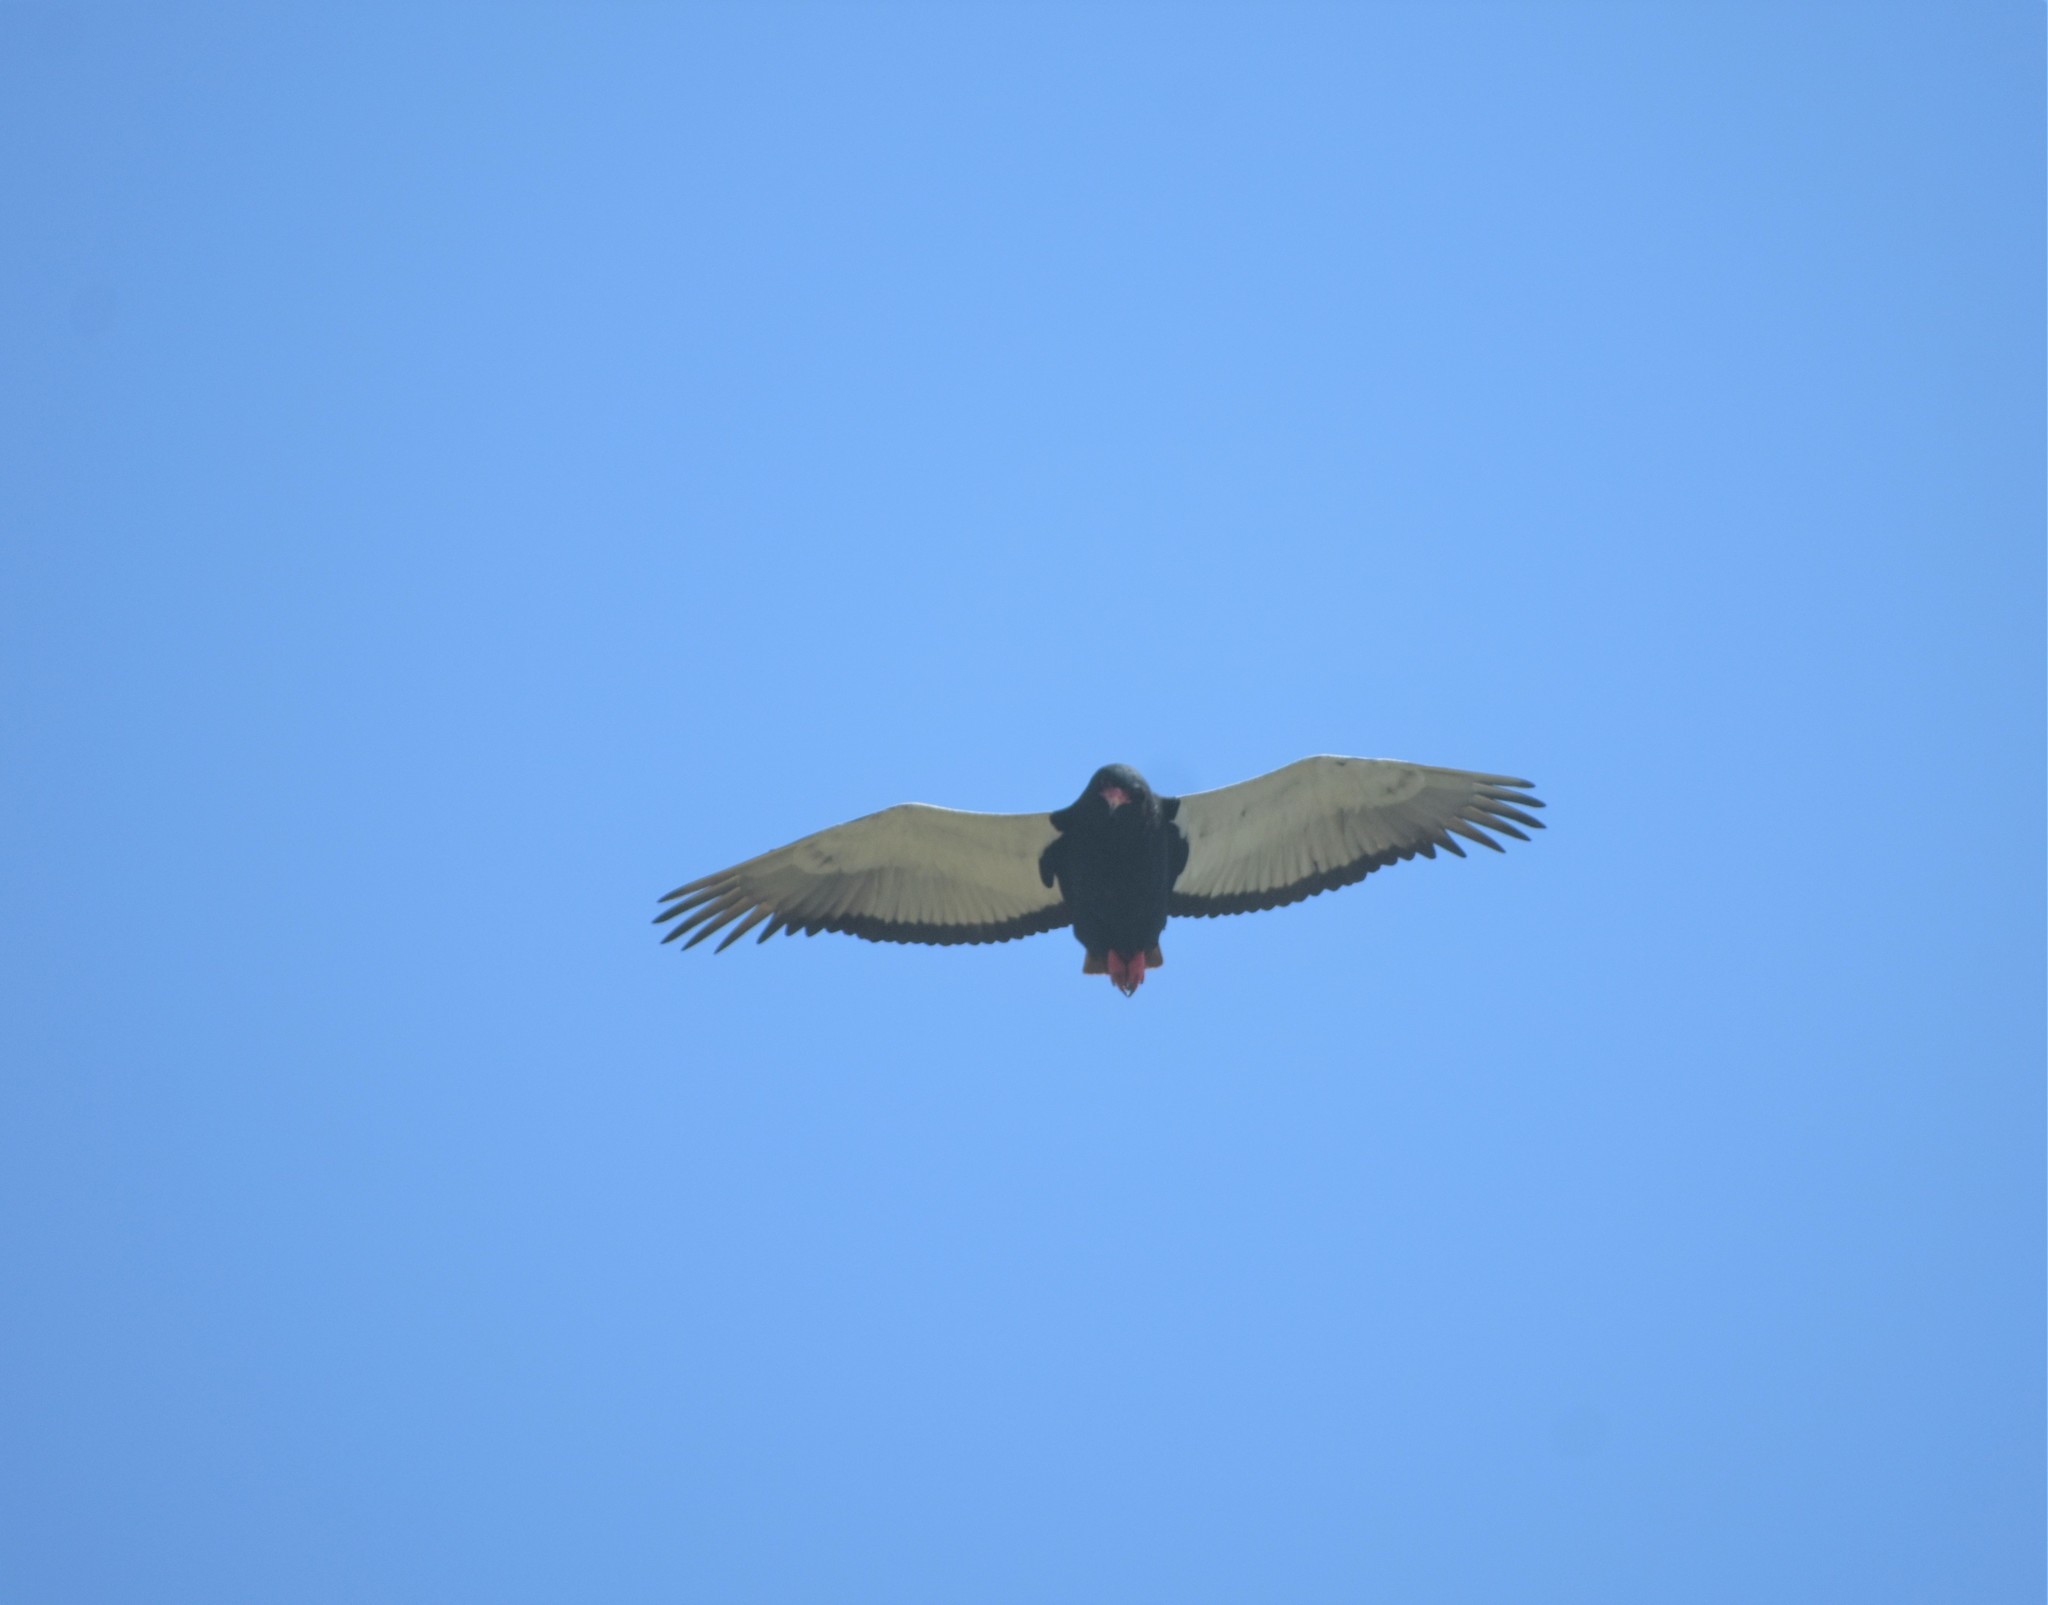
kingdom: Animalia
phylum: Chordata
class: Aves
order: Accipitriformes
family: Accipitridae
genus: Terathopius
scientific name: Terathopius ecaudatus
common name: Bateleur
